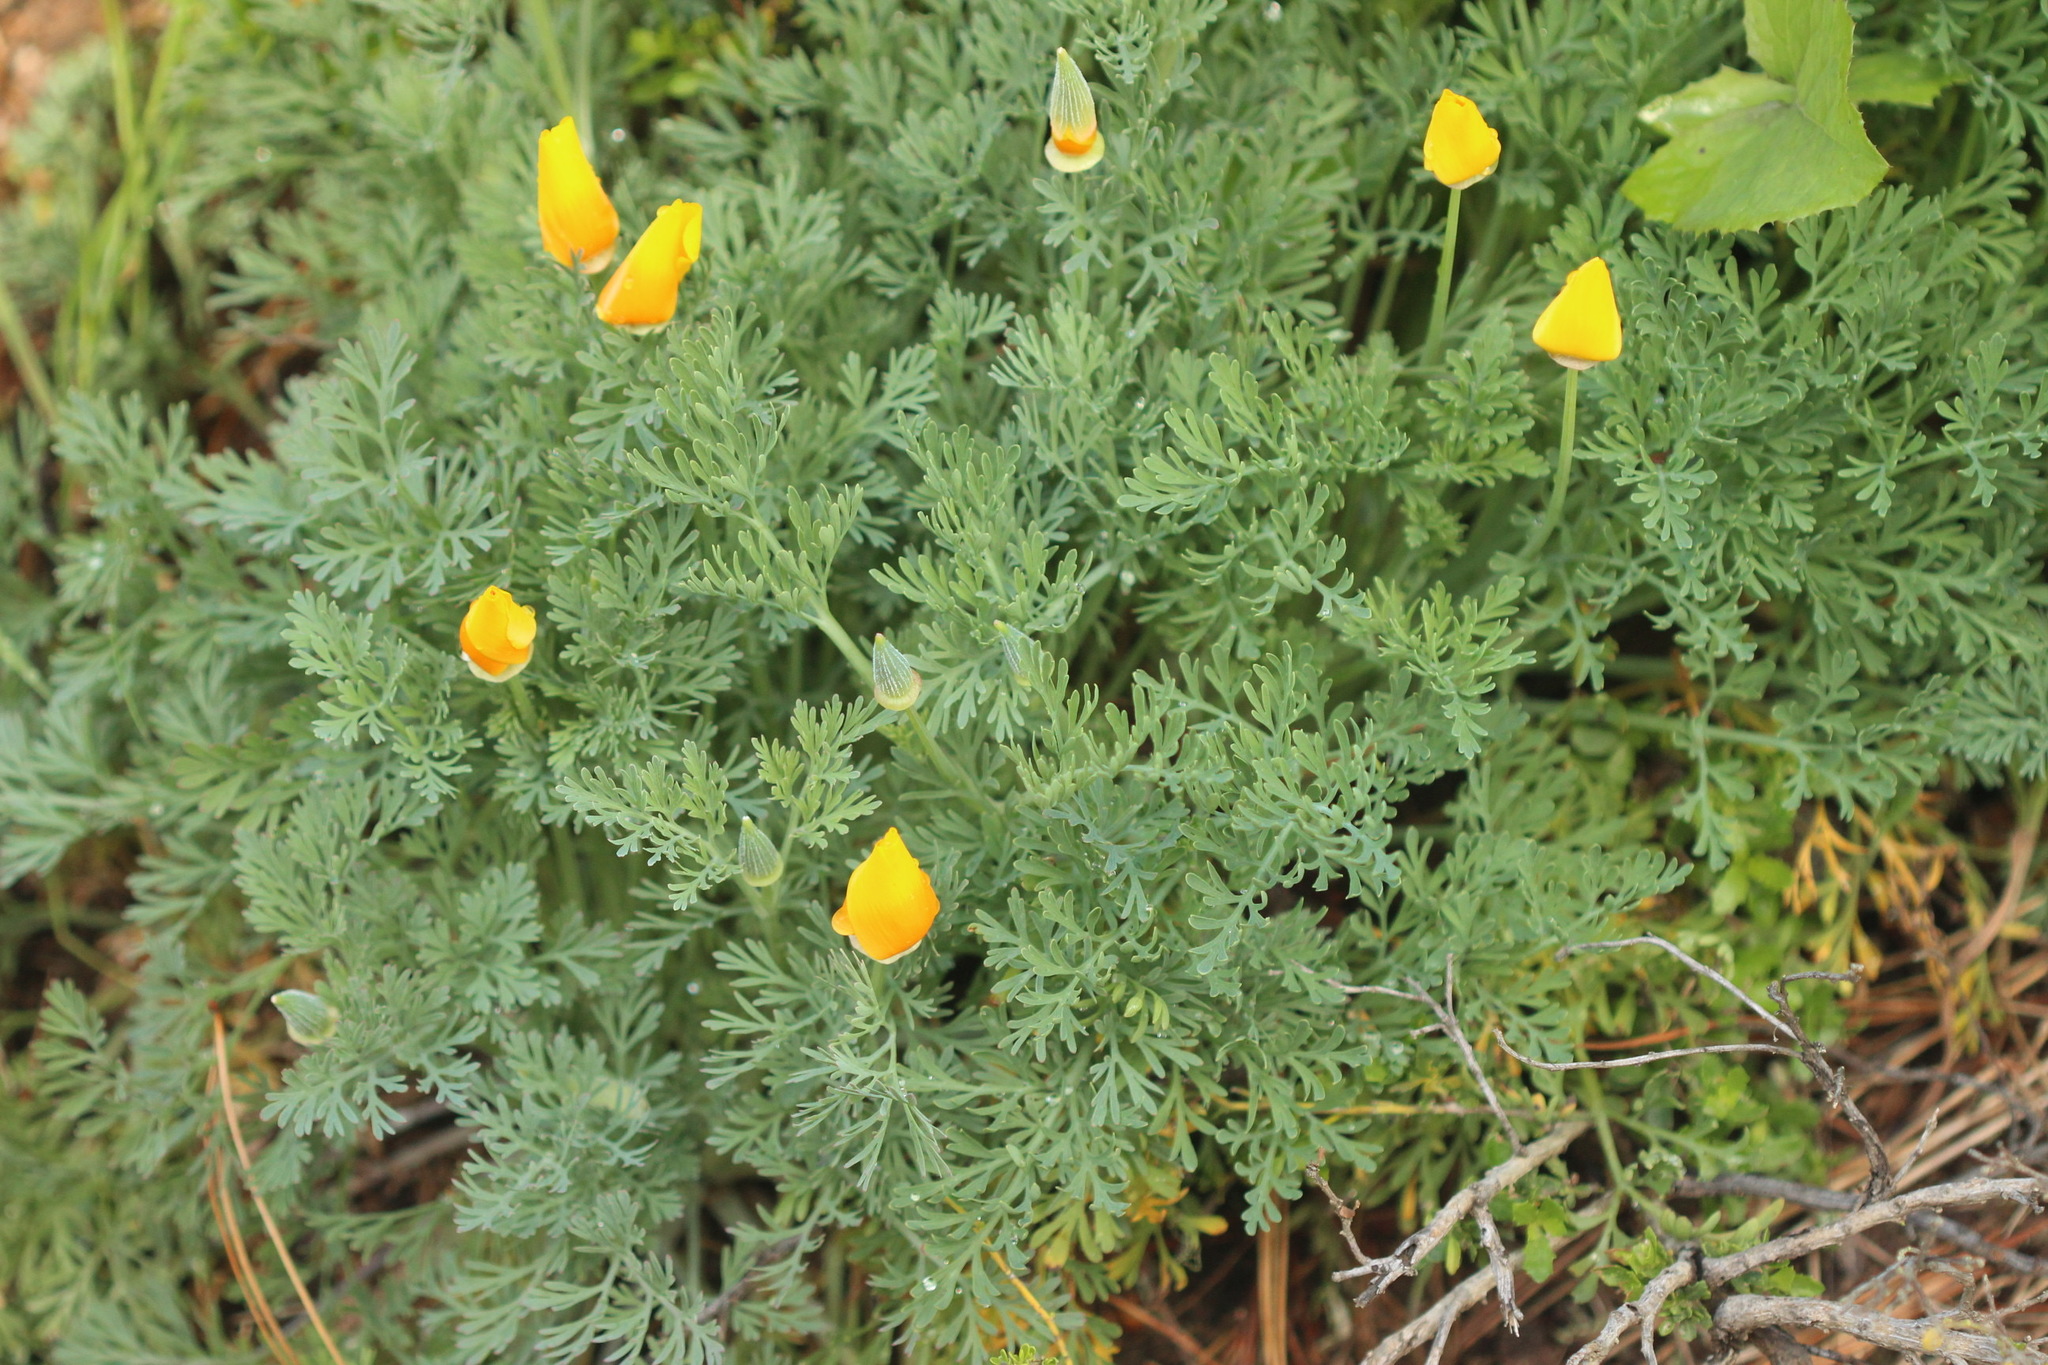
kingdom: Plantae
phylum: Tracheophyta
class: Magnoliopsida
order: Ranunculales
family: Papaveraceae
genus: Eschscholzia
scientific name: Eschscholzia californica
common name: California poppy
